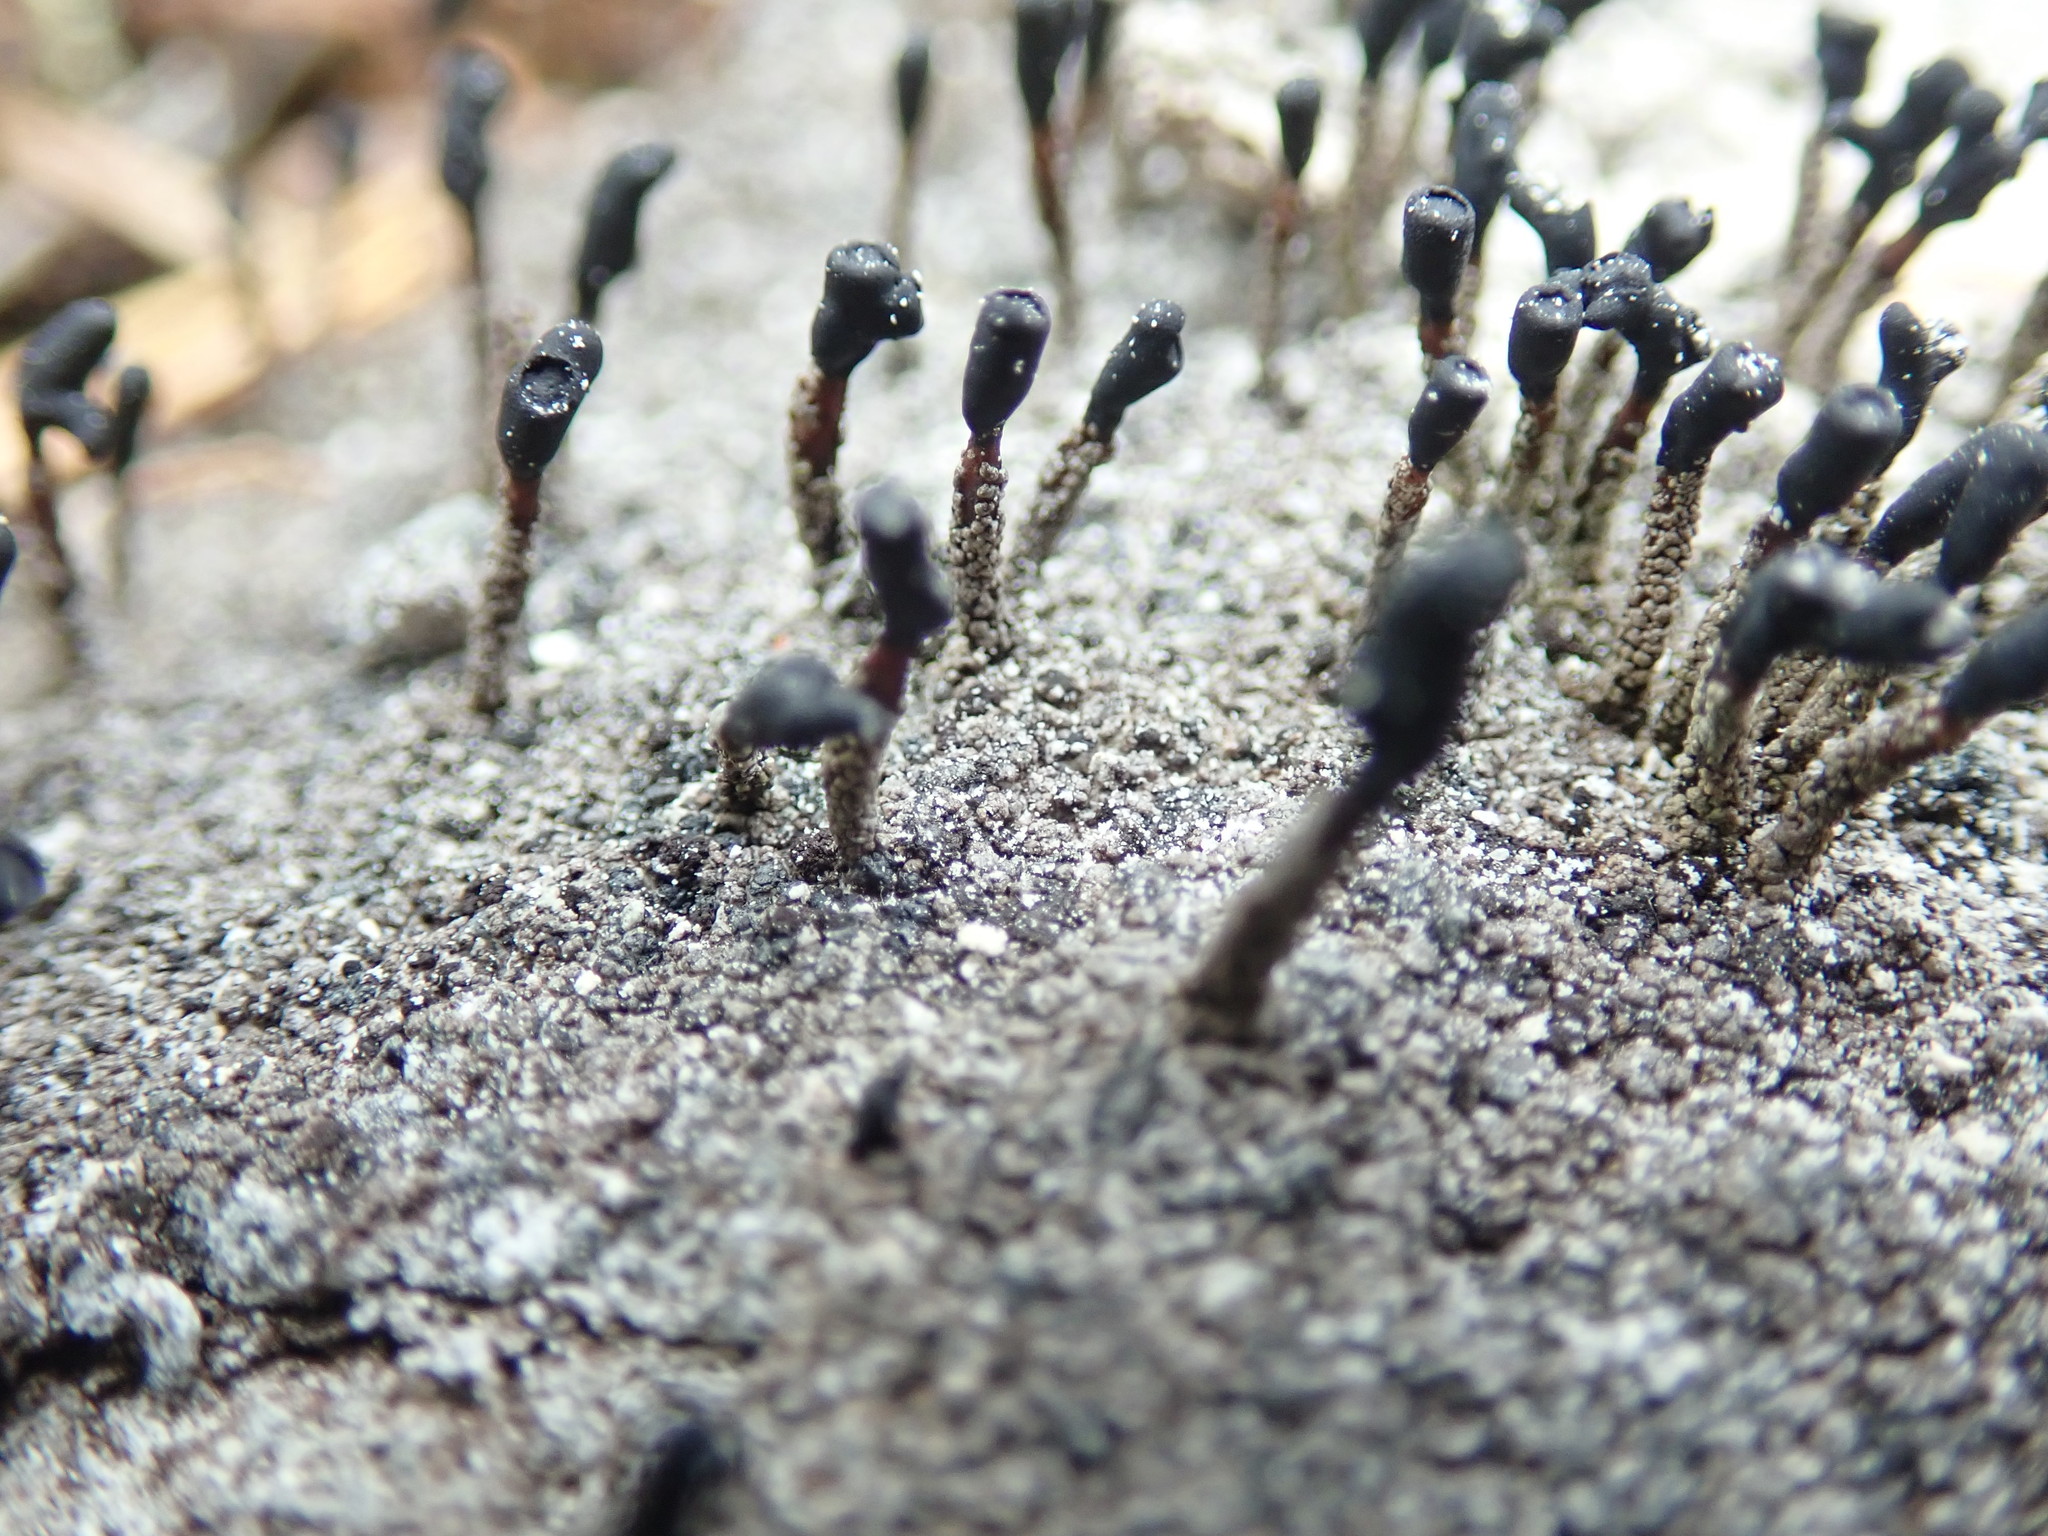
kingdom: Fungi
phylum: Ascomycota
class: Lecanoromycetes
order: Lecanorales
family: Cladoniaceae
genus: Pilophorus
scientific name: Pilophorus clavatus
